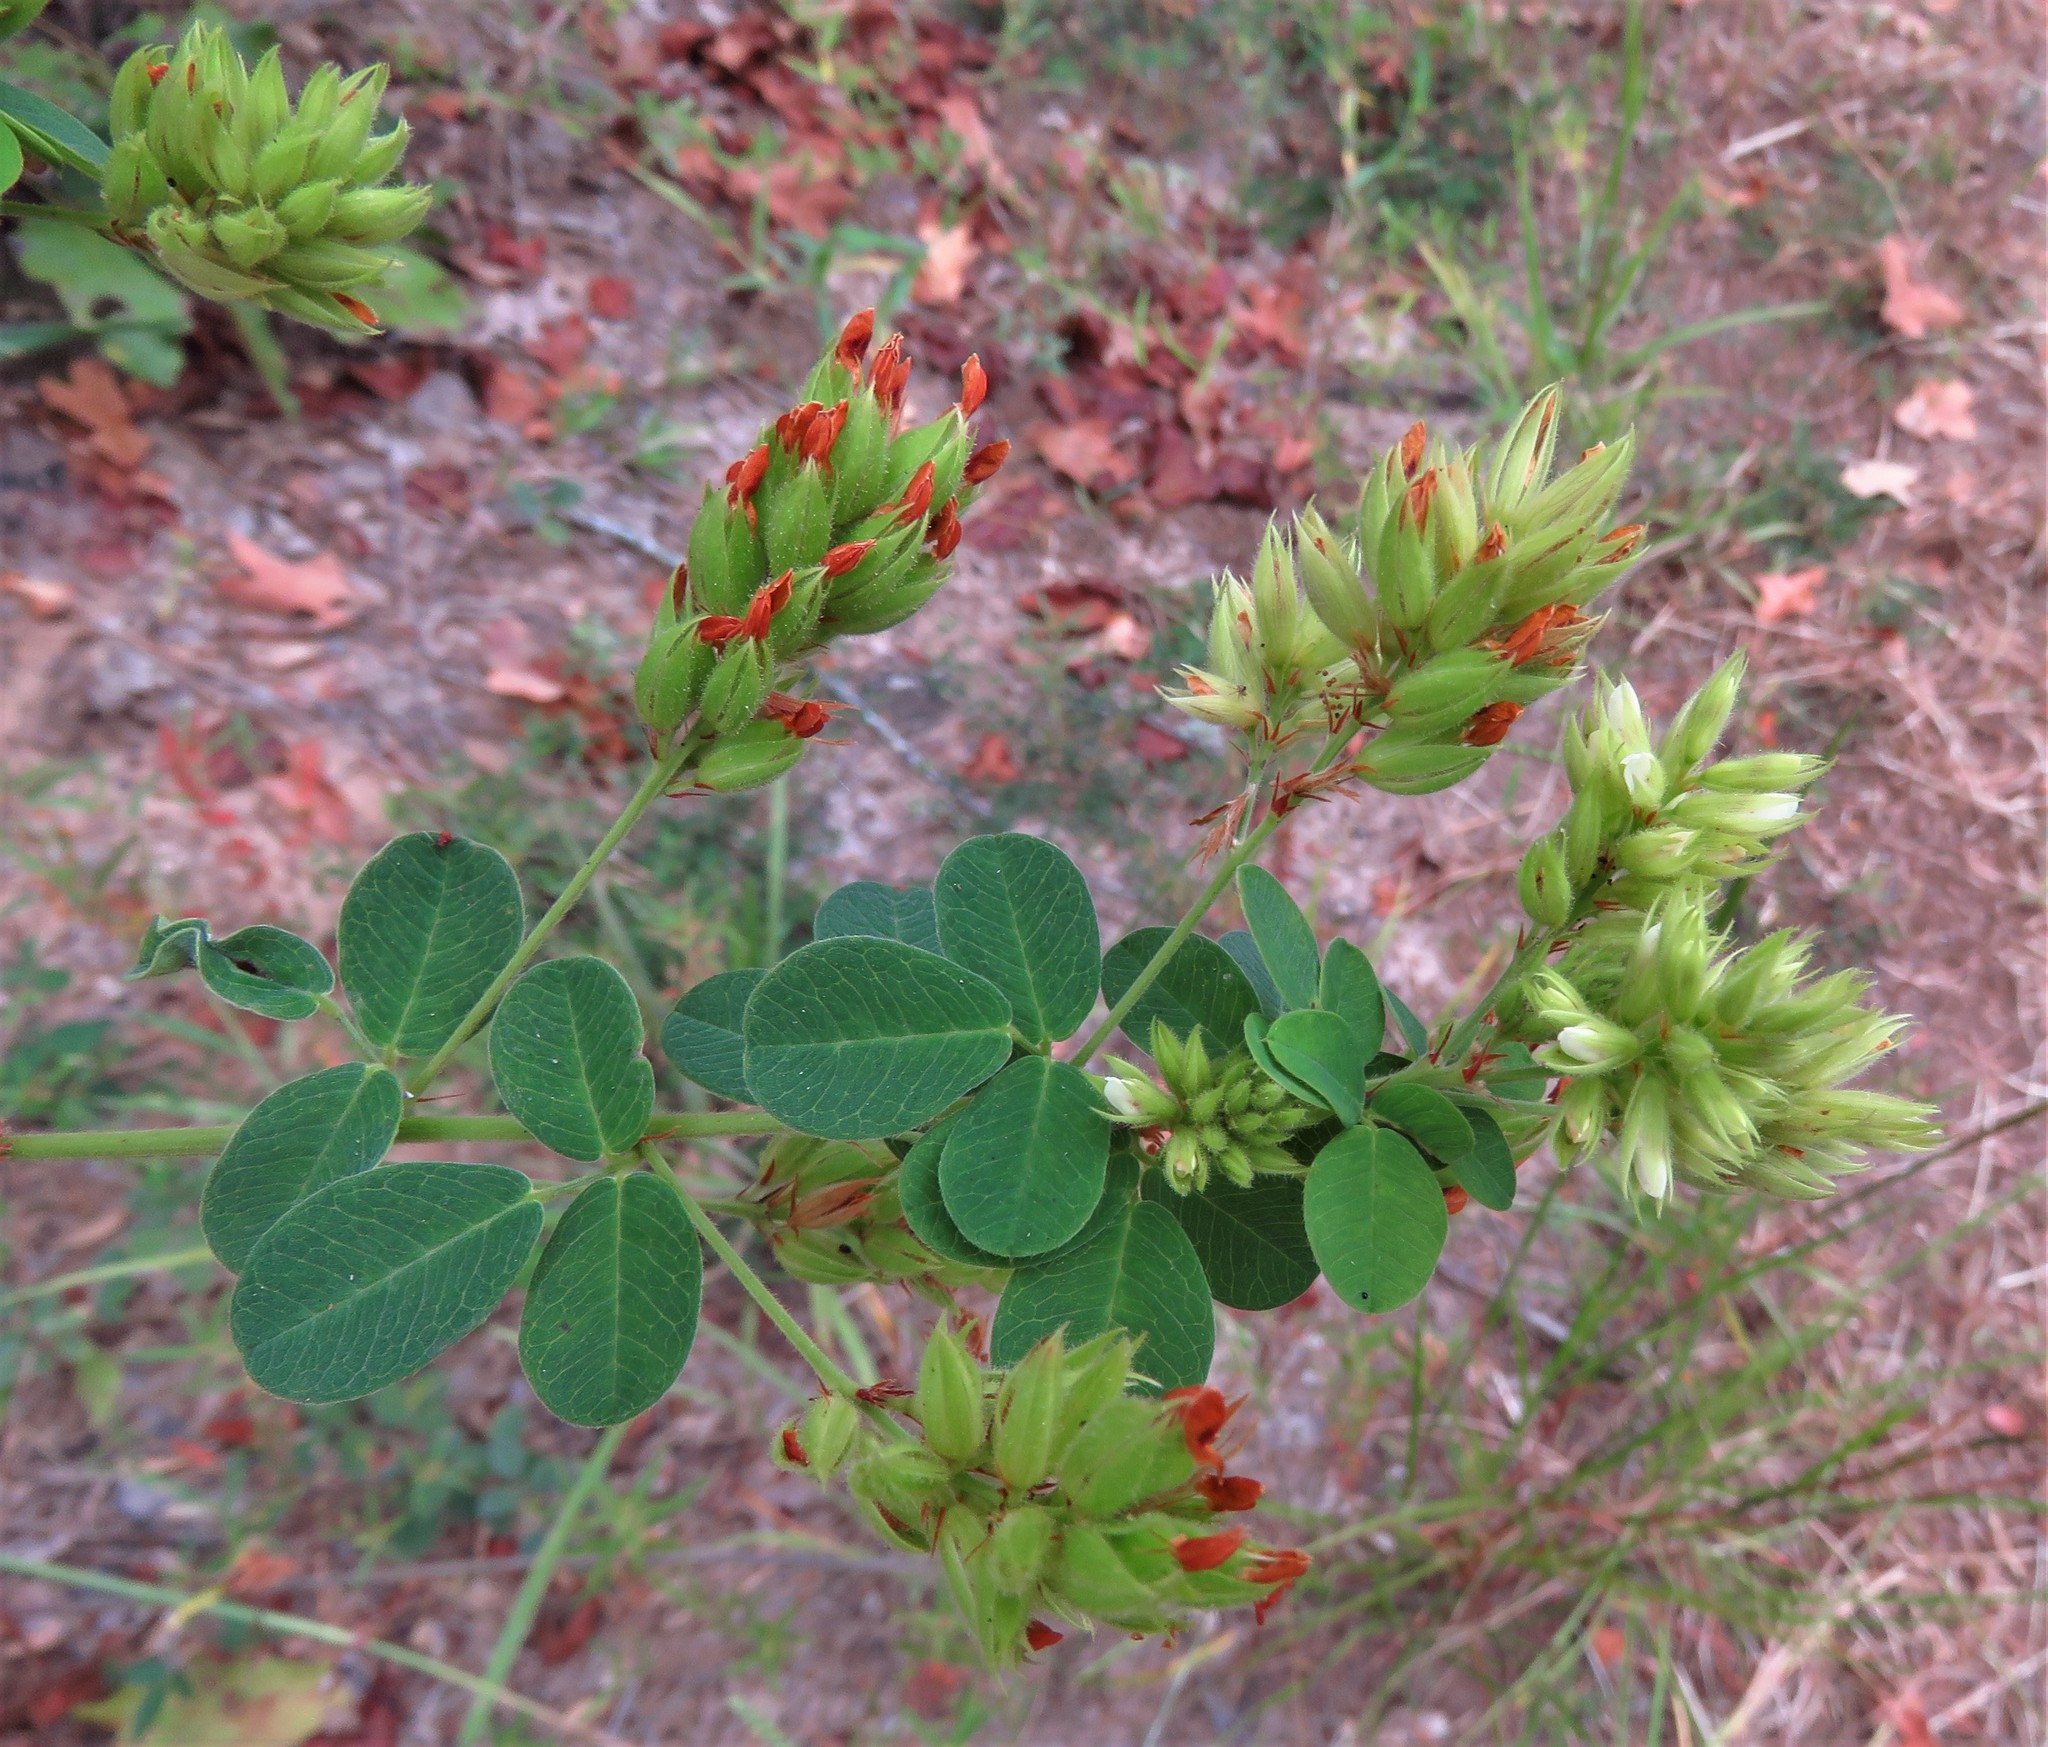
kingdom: Plantae
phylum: Tracheophyta
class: Magnoliopsida
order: Fabales
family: Fabaceae
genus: Lespedeza
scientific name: Lespedeza hirta
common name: Hairy lespedeza
